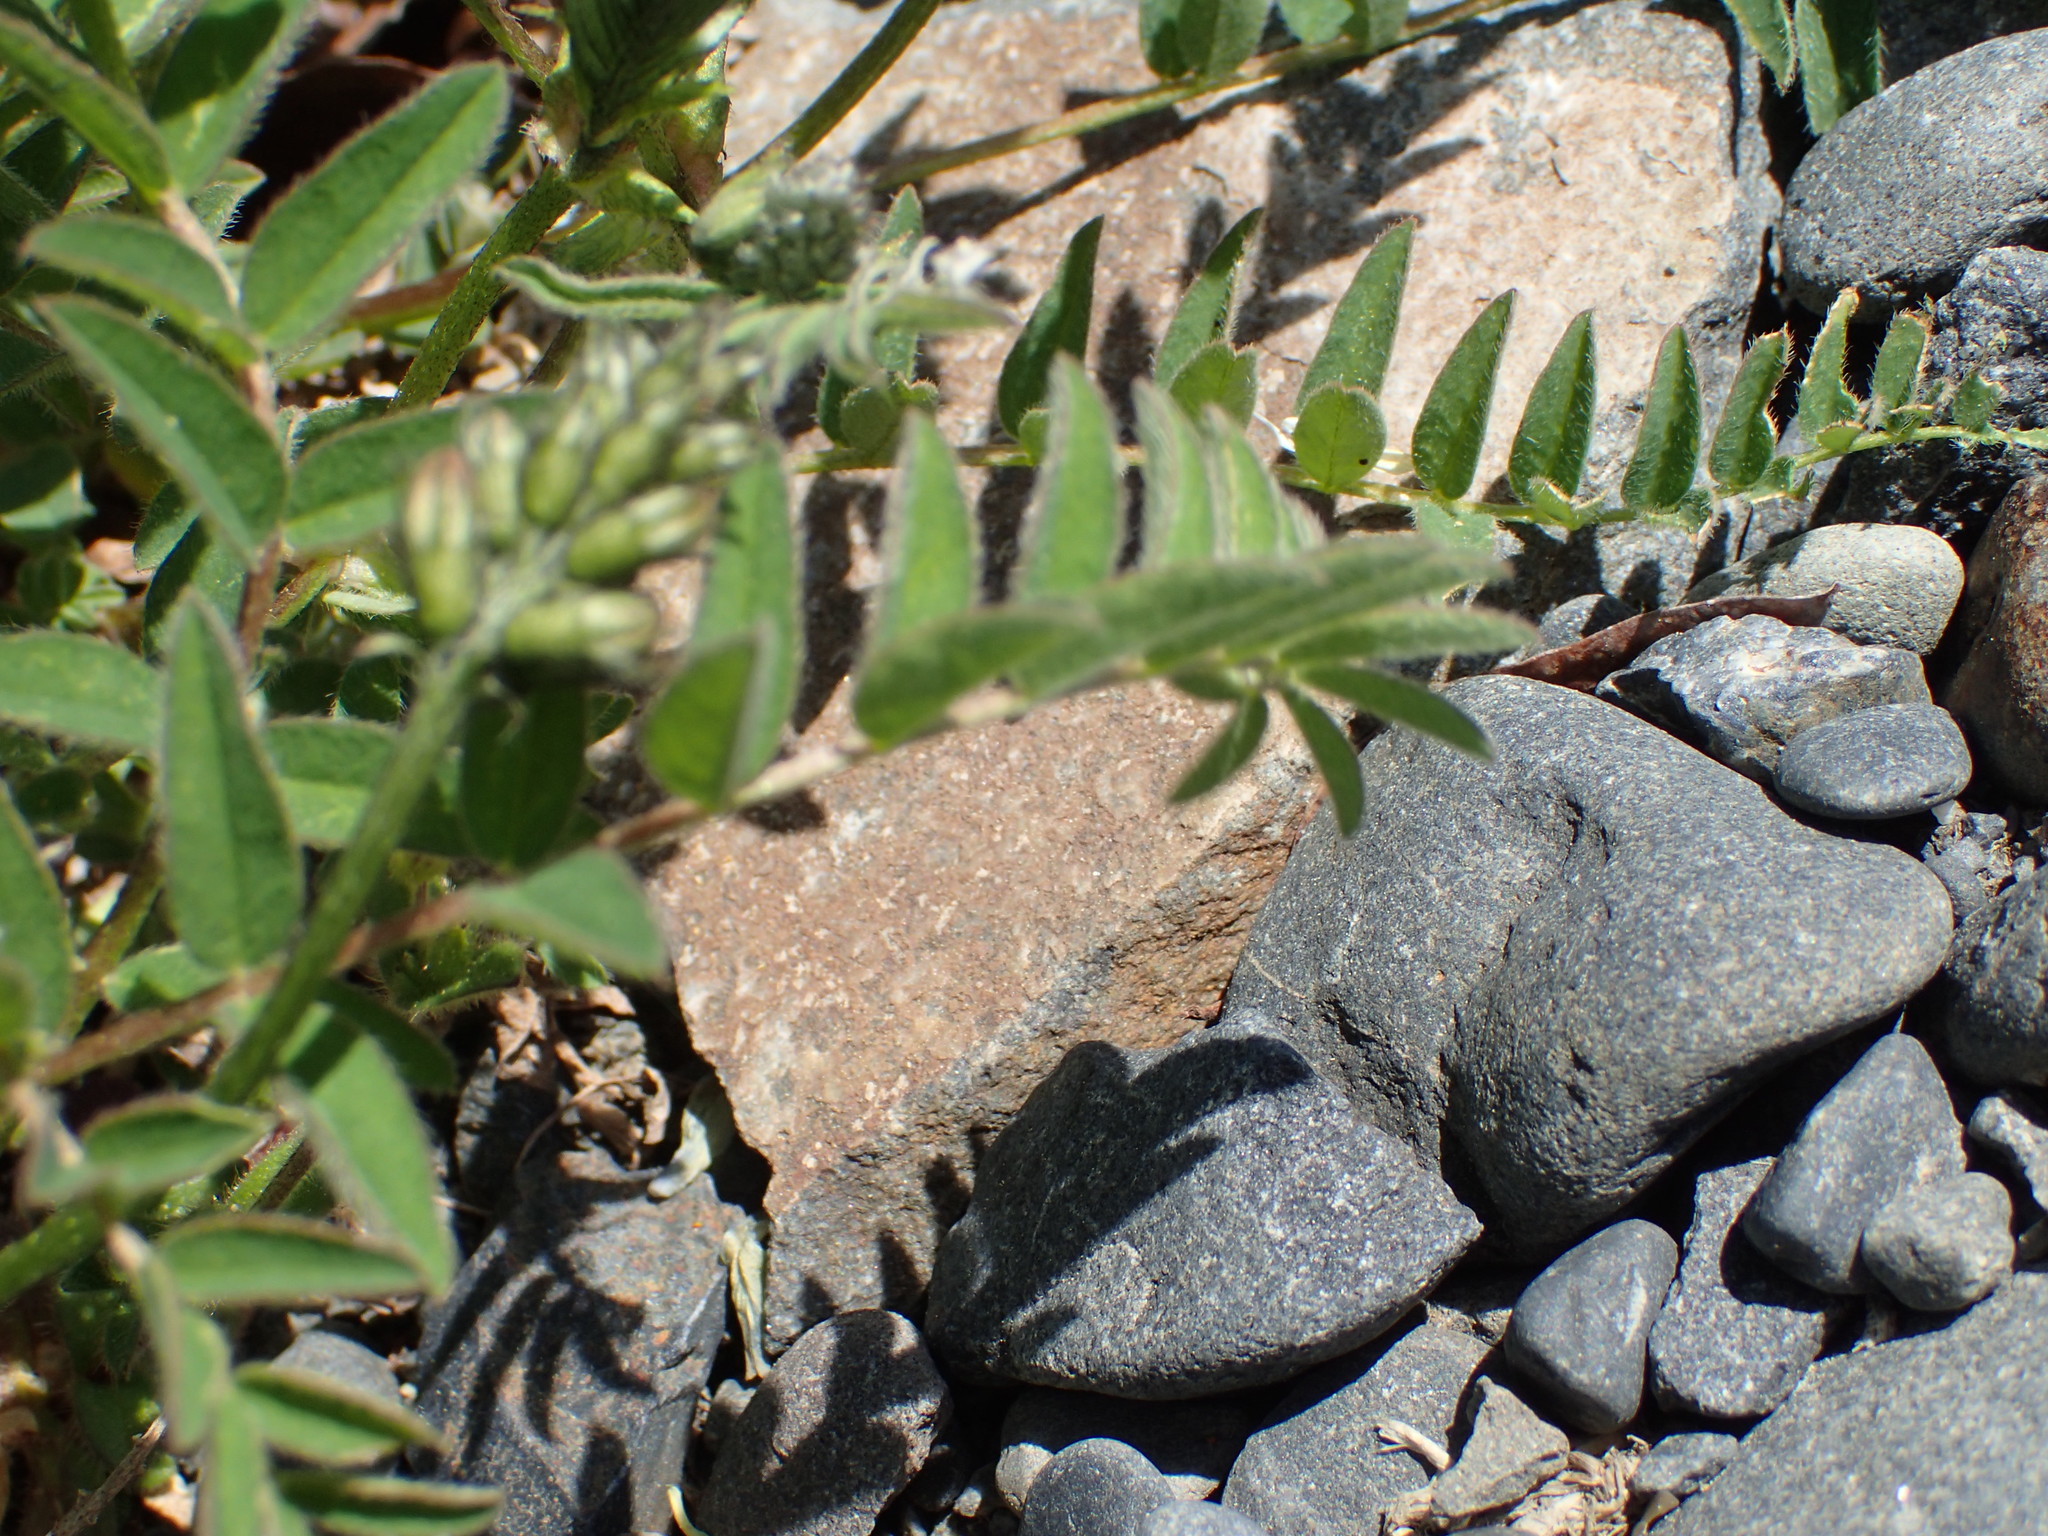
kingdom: Plantae
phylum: Tracheophyta
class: Magnoliopsida
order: Fabales
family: Fabaceae
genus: Astragalus
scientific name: Astragalus alpinus
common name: Alpine milk-vetch
